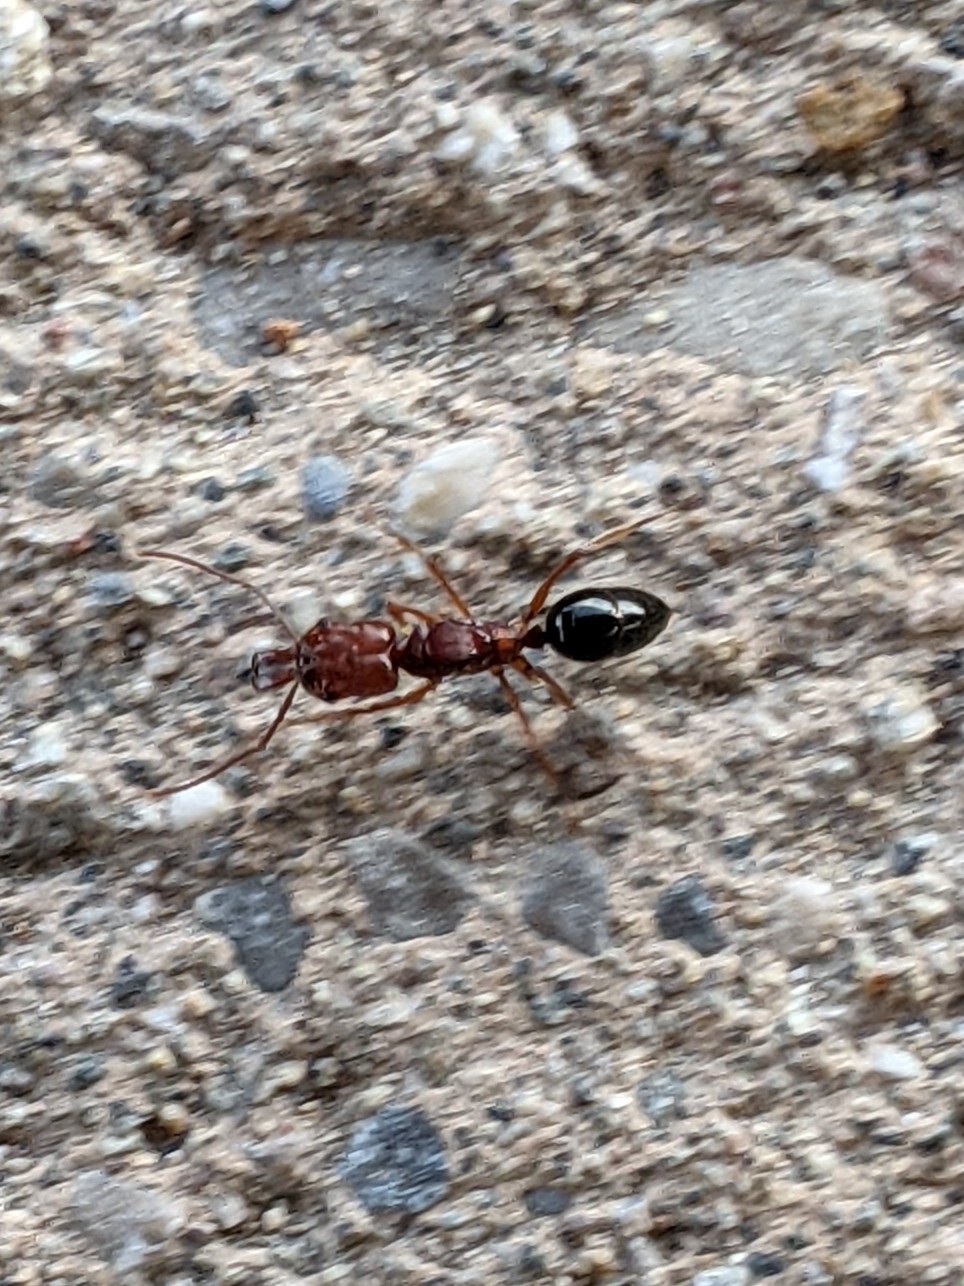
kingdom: Animalia
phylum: Arthropoda
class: Insecta
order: Hymenoptera
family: Formicidae
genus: Odontomachus
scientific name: Odontomachus clarus
